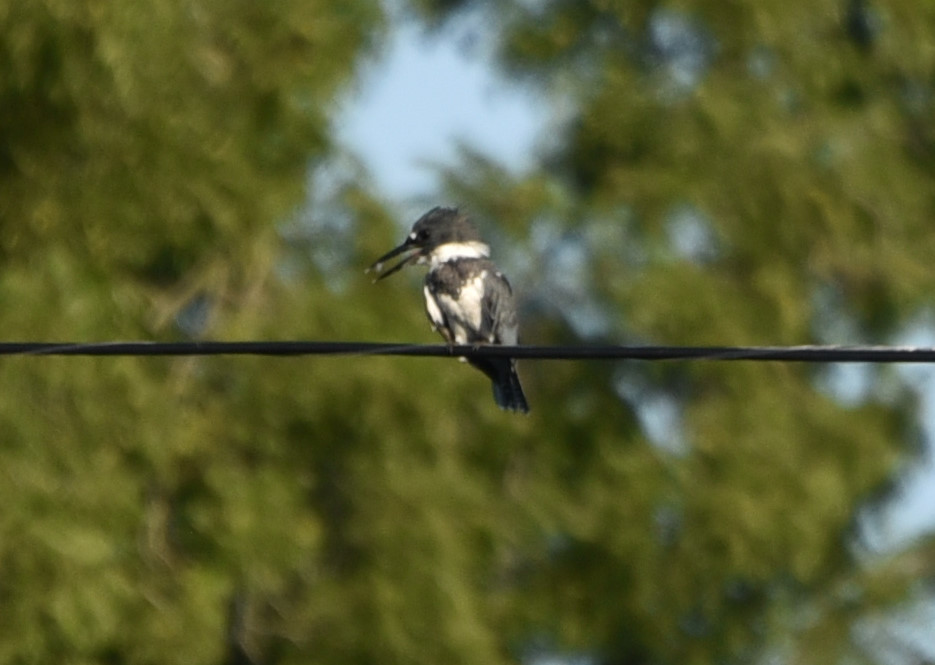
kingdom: Animalia
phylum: Chordata
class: Aves
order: Coraciiformes
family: Alcedinidae
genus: Megaceryle
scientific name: Megaceryle alcyon
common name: Belted kingfisher
